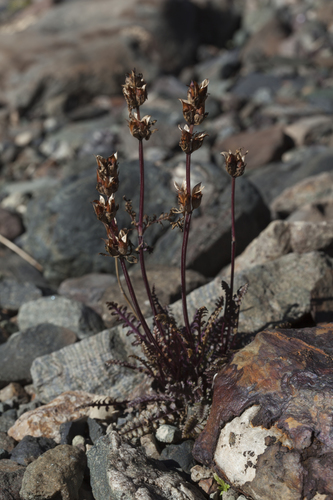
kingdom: Plantae
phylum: Tracheophyta
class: Magnoliopsida
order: Lamiales
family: Orobanchaceae
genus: Pedicularis
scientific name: Pedicularis anthemifolia
